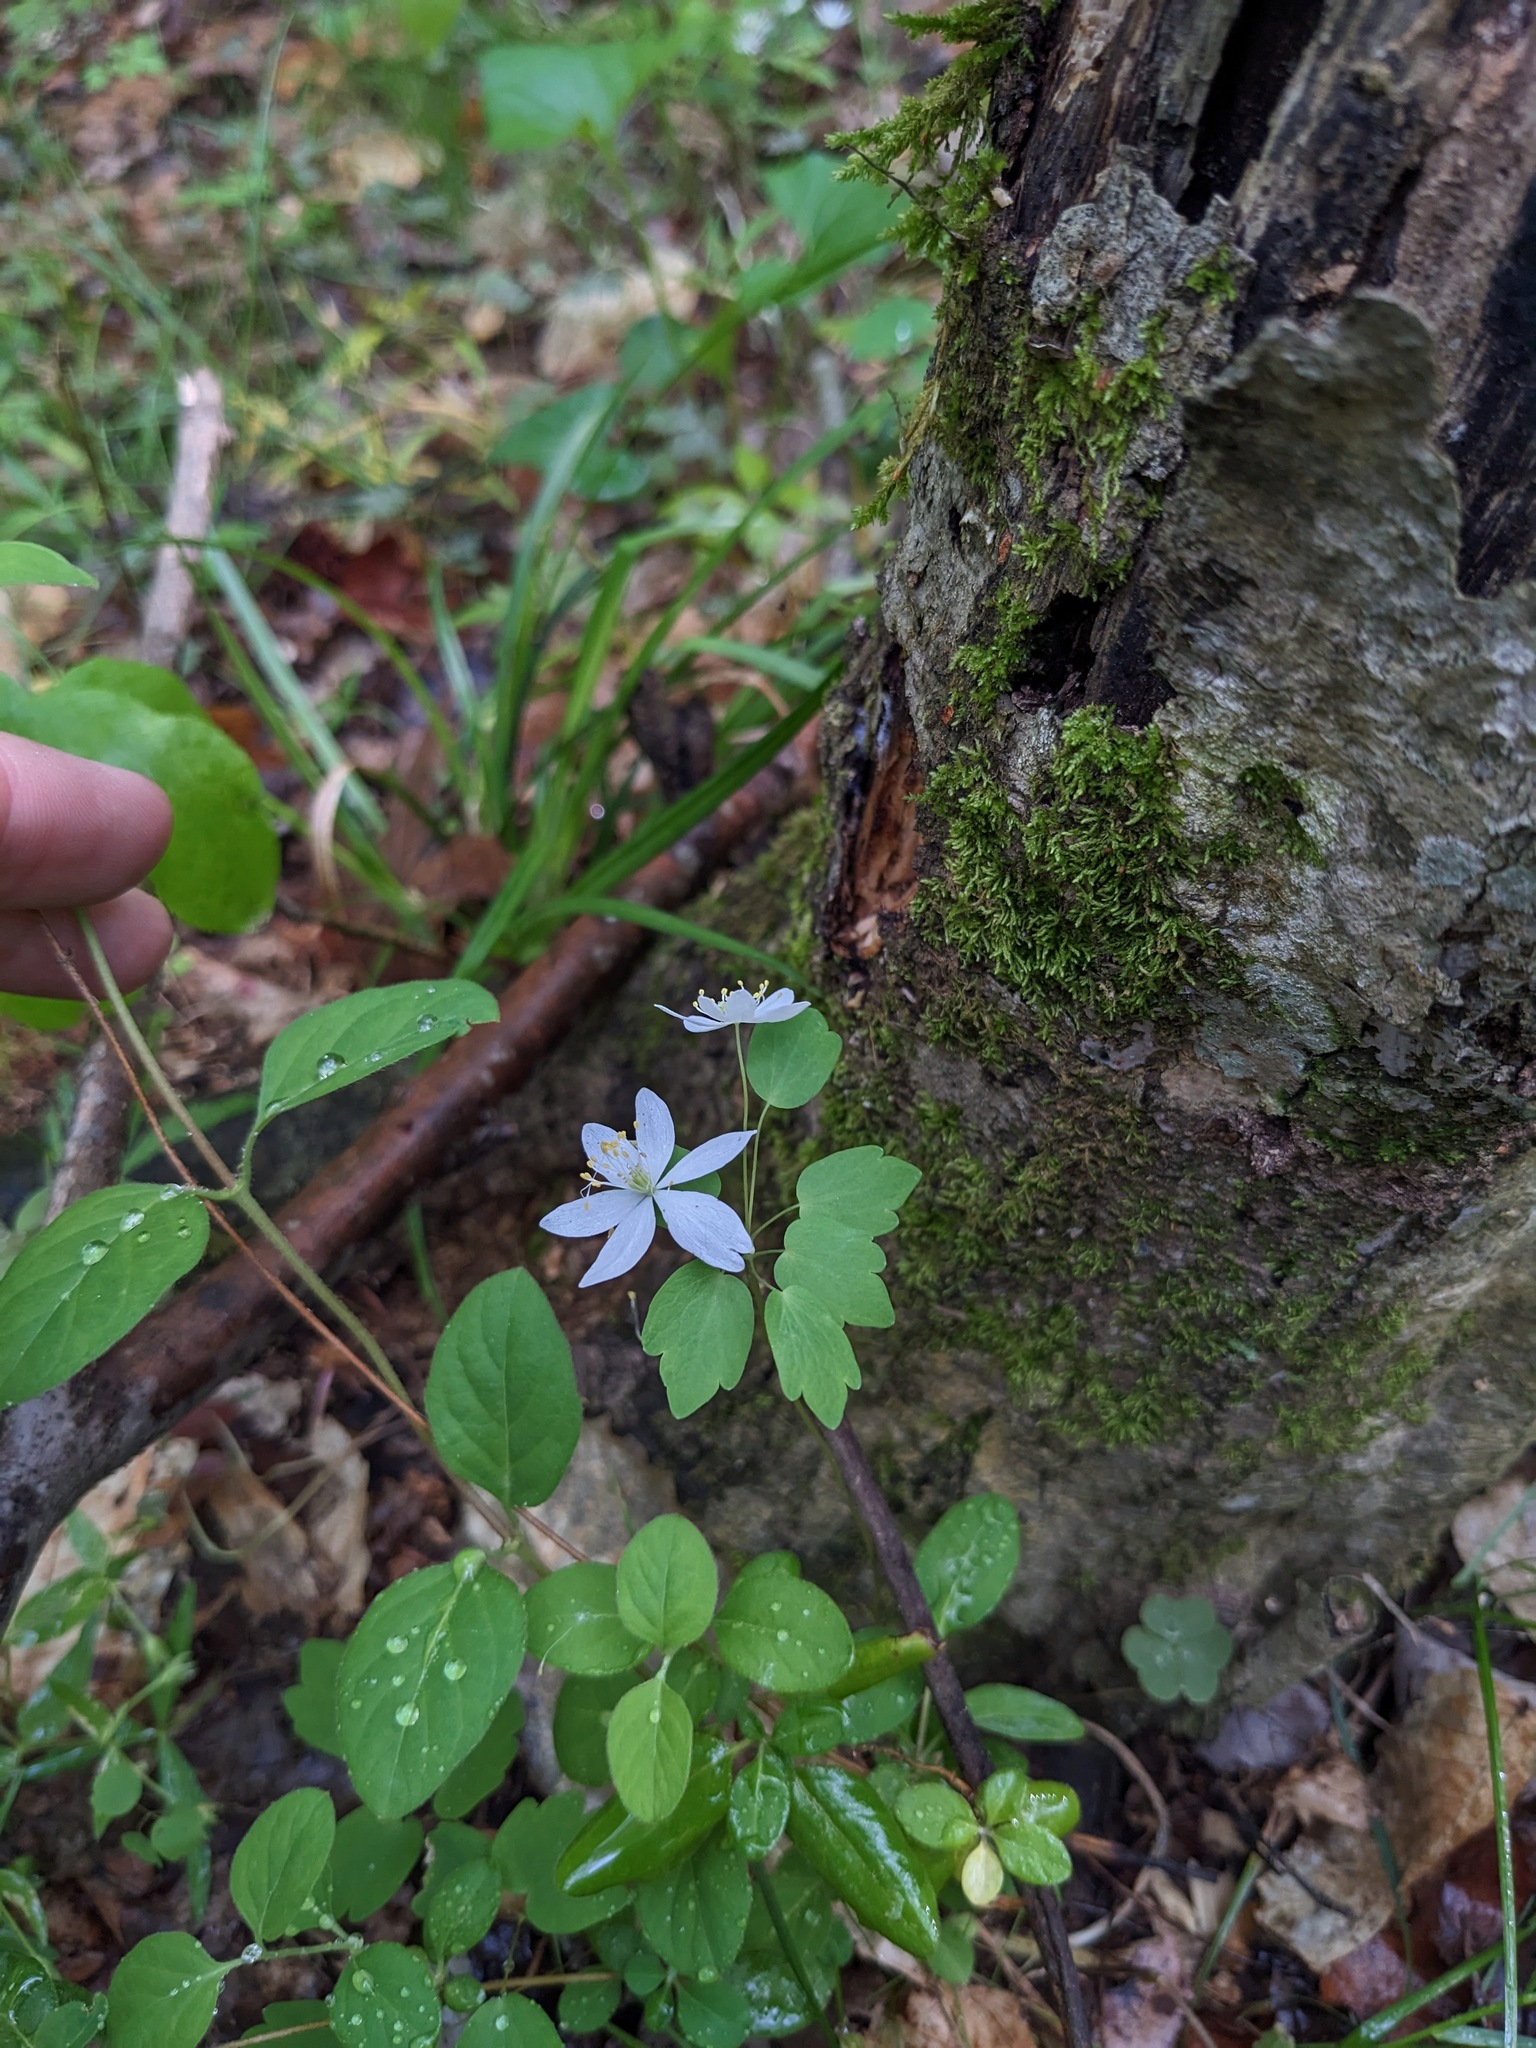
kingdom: Plantae
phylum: Tracheophyta
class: Magnoliopsida
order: Ranunculales
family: Ranunculaceae
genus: Thalictrum
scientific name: Thalictrum thalictroides
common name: Rue-anemone
